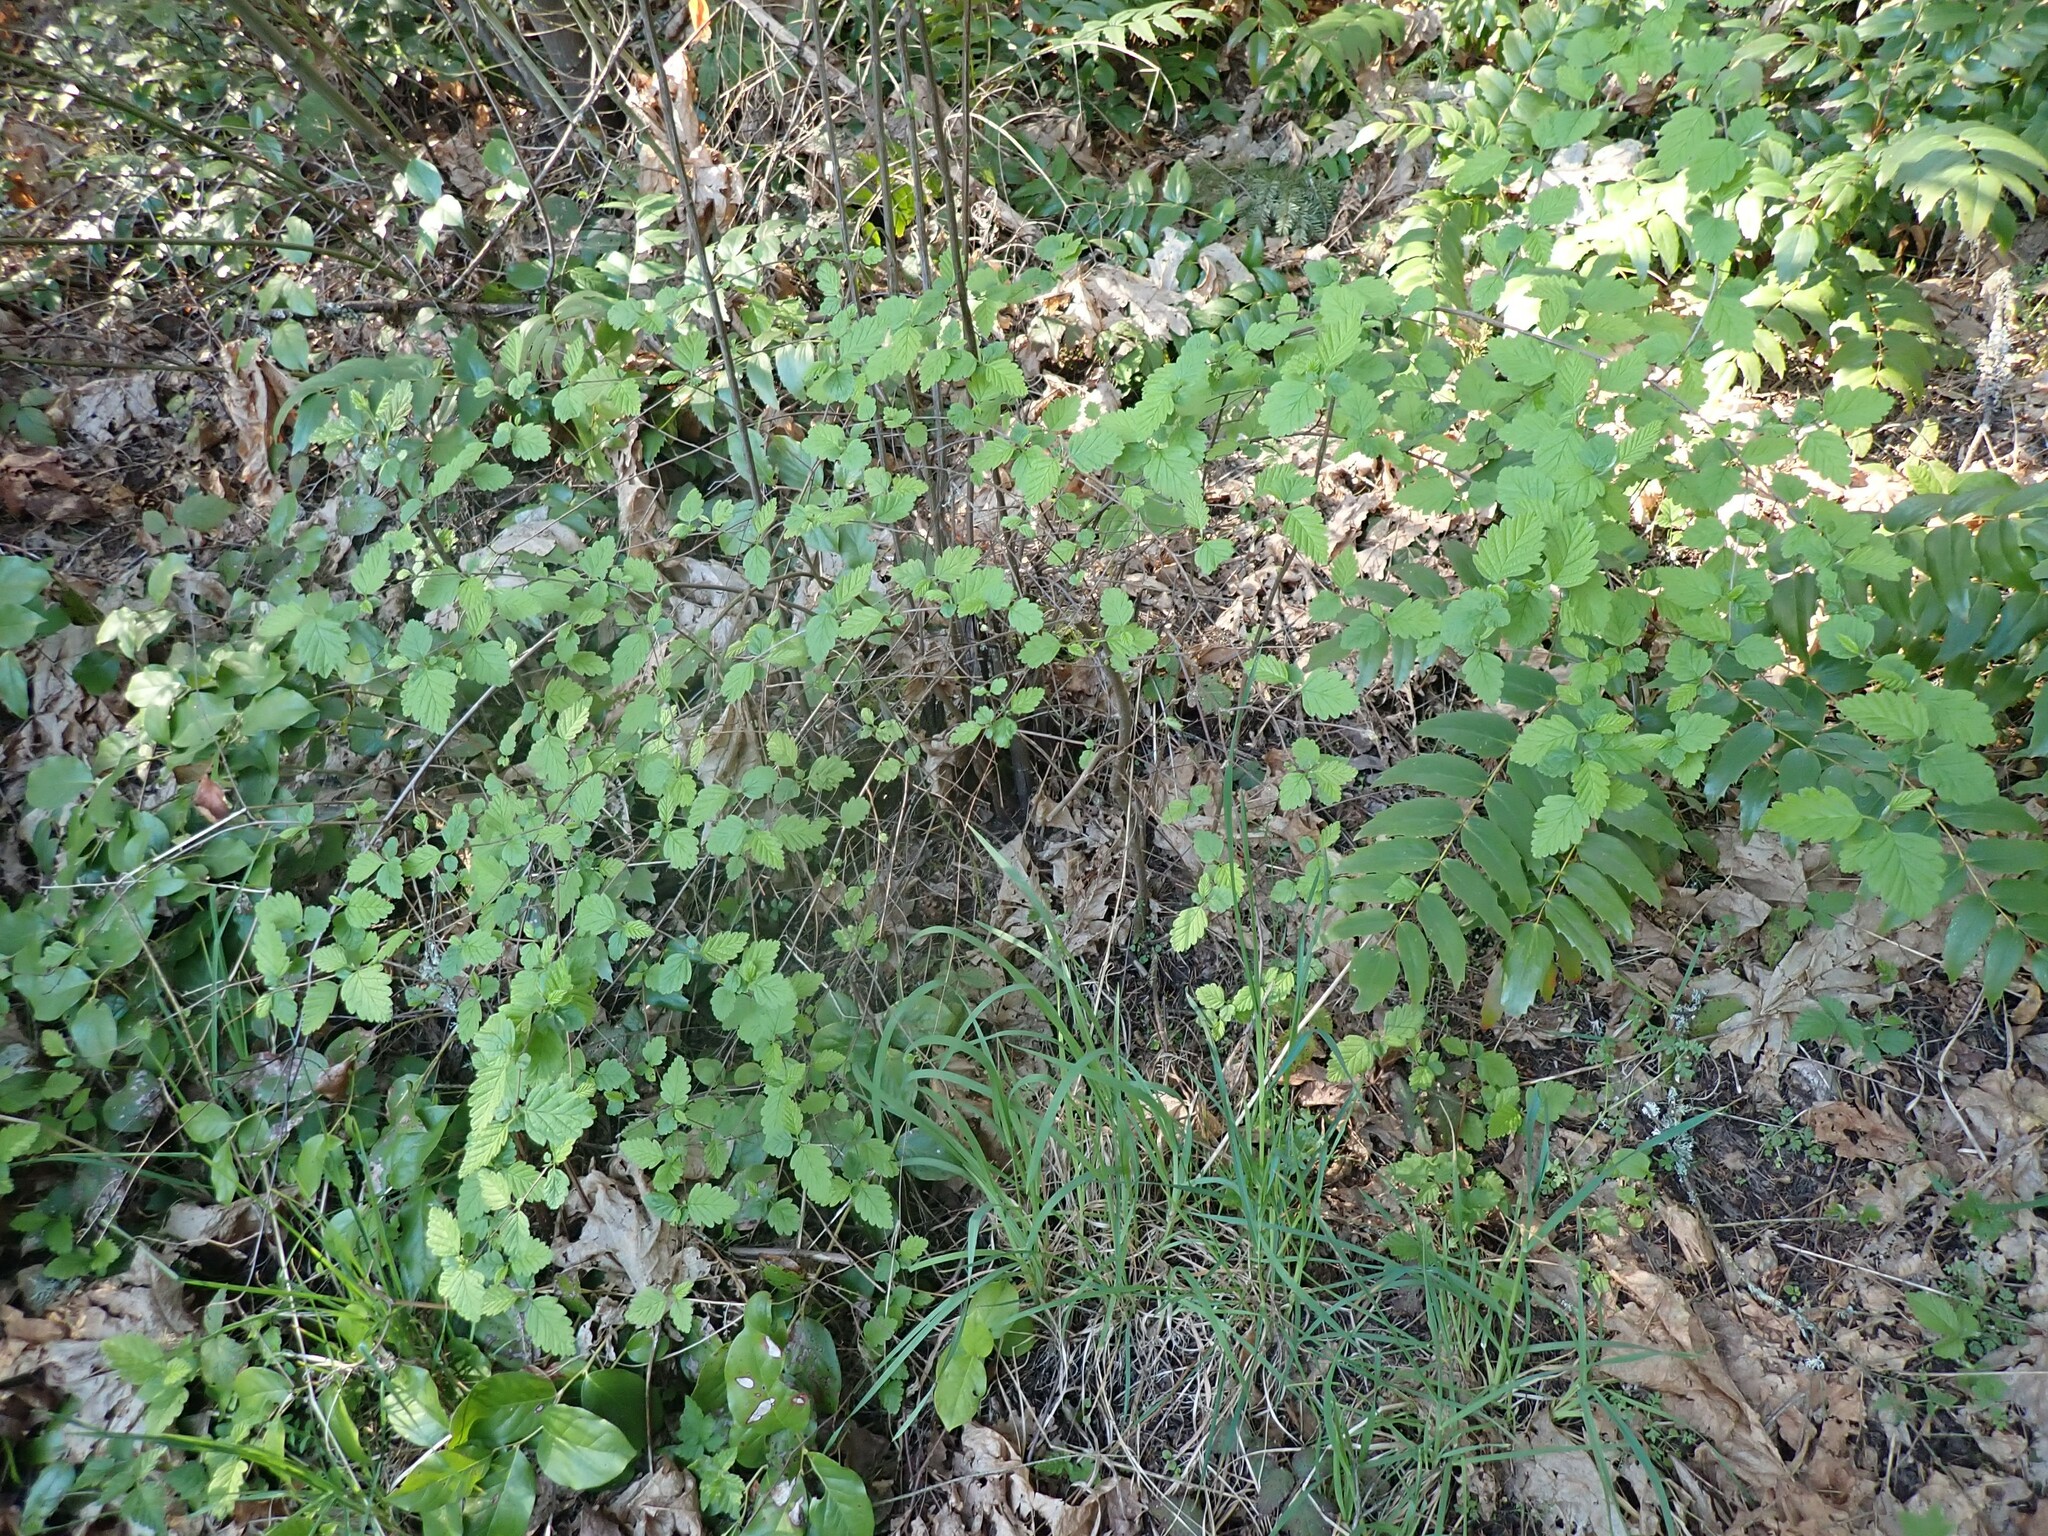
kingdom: Plantae
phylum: Tracheophyta
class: Magnoliopsida
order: Rosales
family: Rosaceae
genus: Holodiscus
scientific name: Holodiscus discolor
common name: Oceanspray
